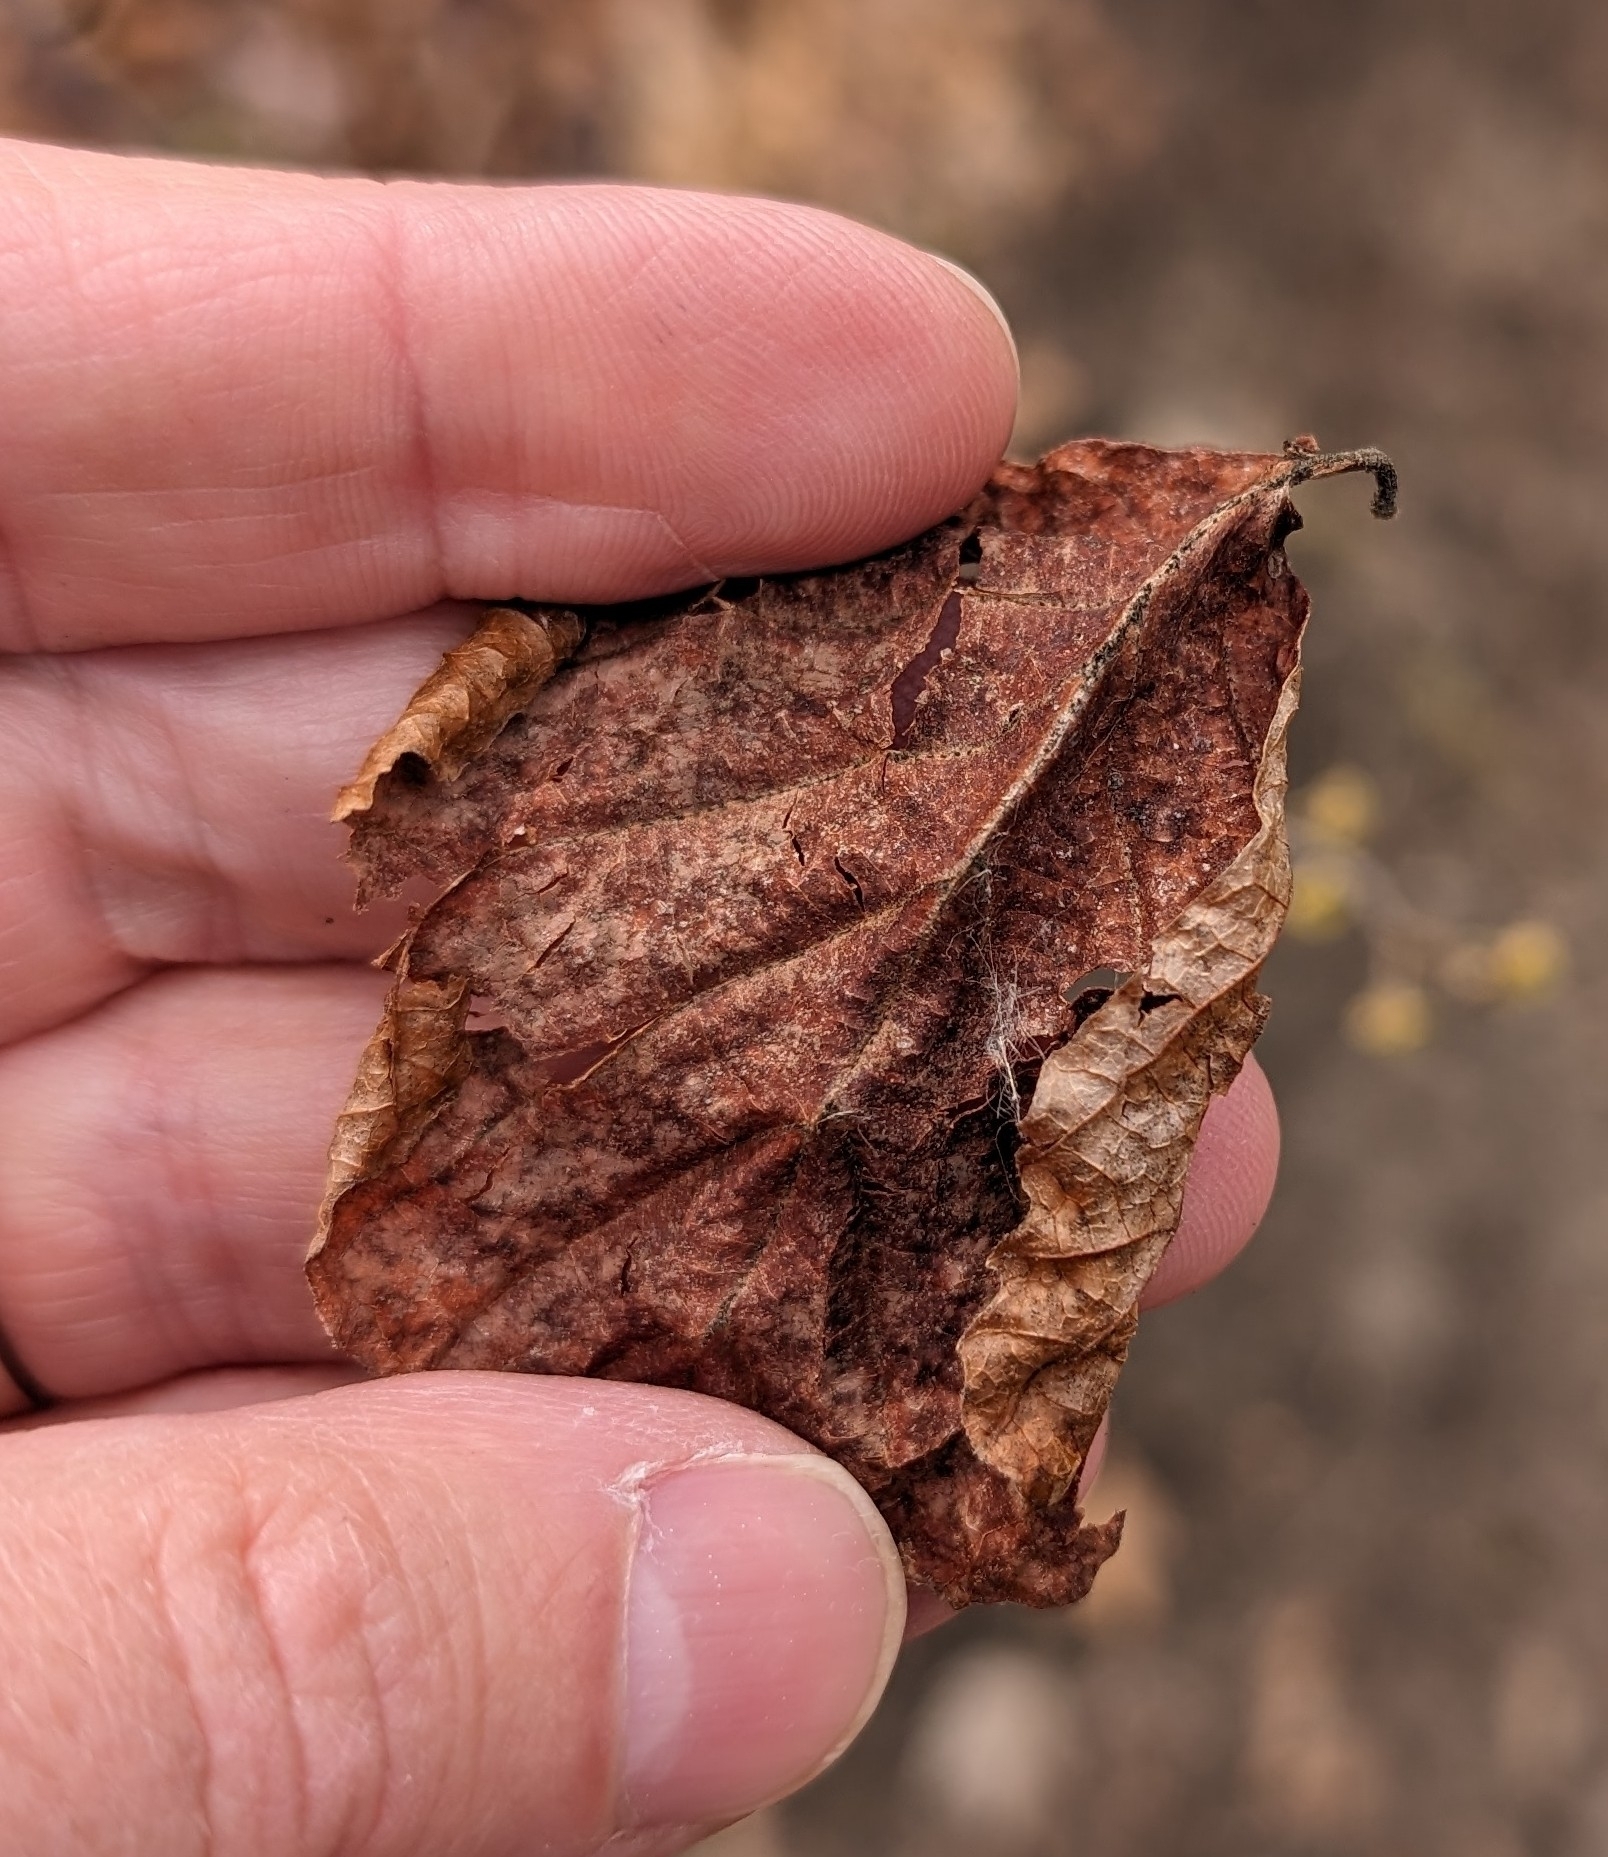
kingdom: Plantae
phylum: Tracheophyta
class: Magnoliopsida
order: Saxifragales
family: Hamamelidaceae
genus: Hamamelis
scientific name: Hamamelis virginiana
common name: Witch-hazel
